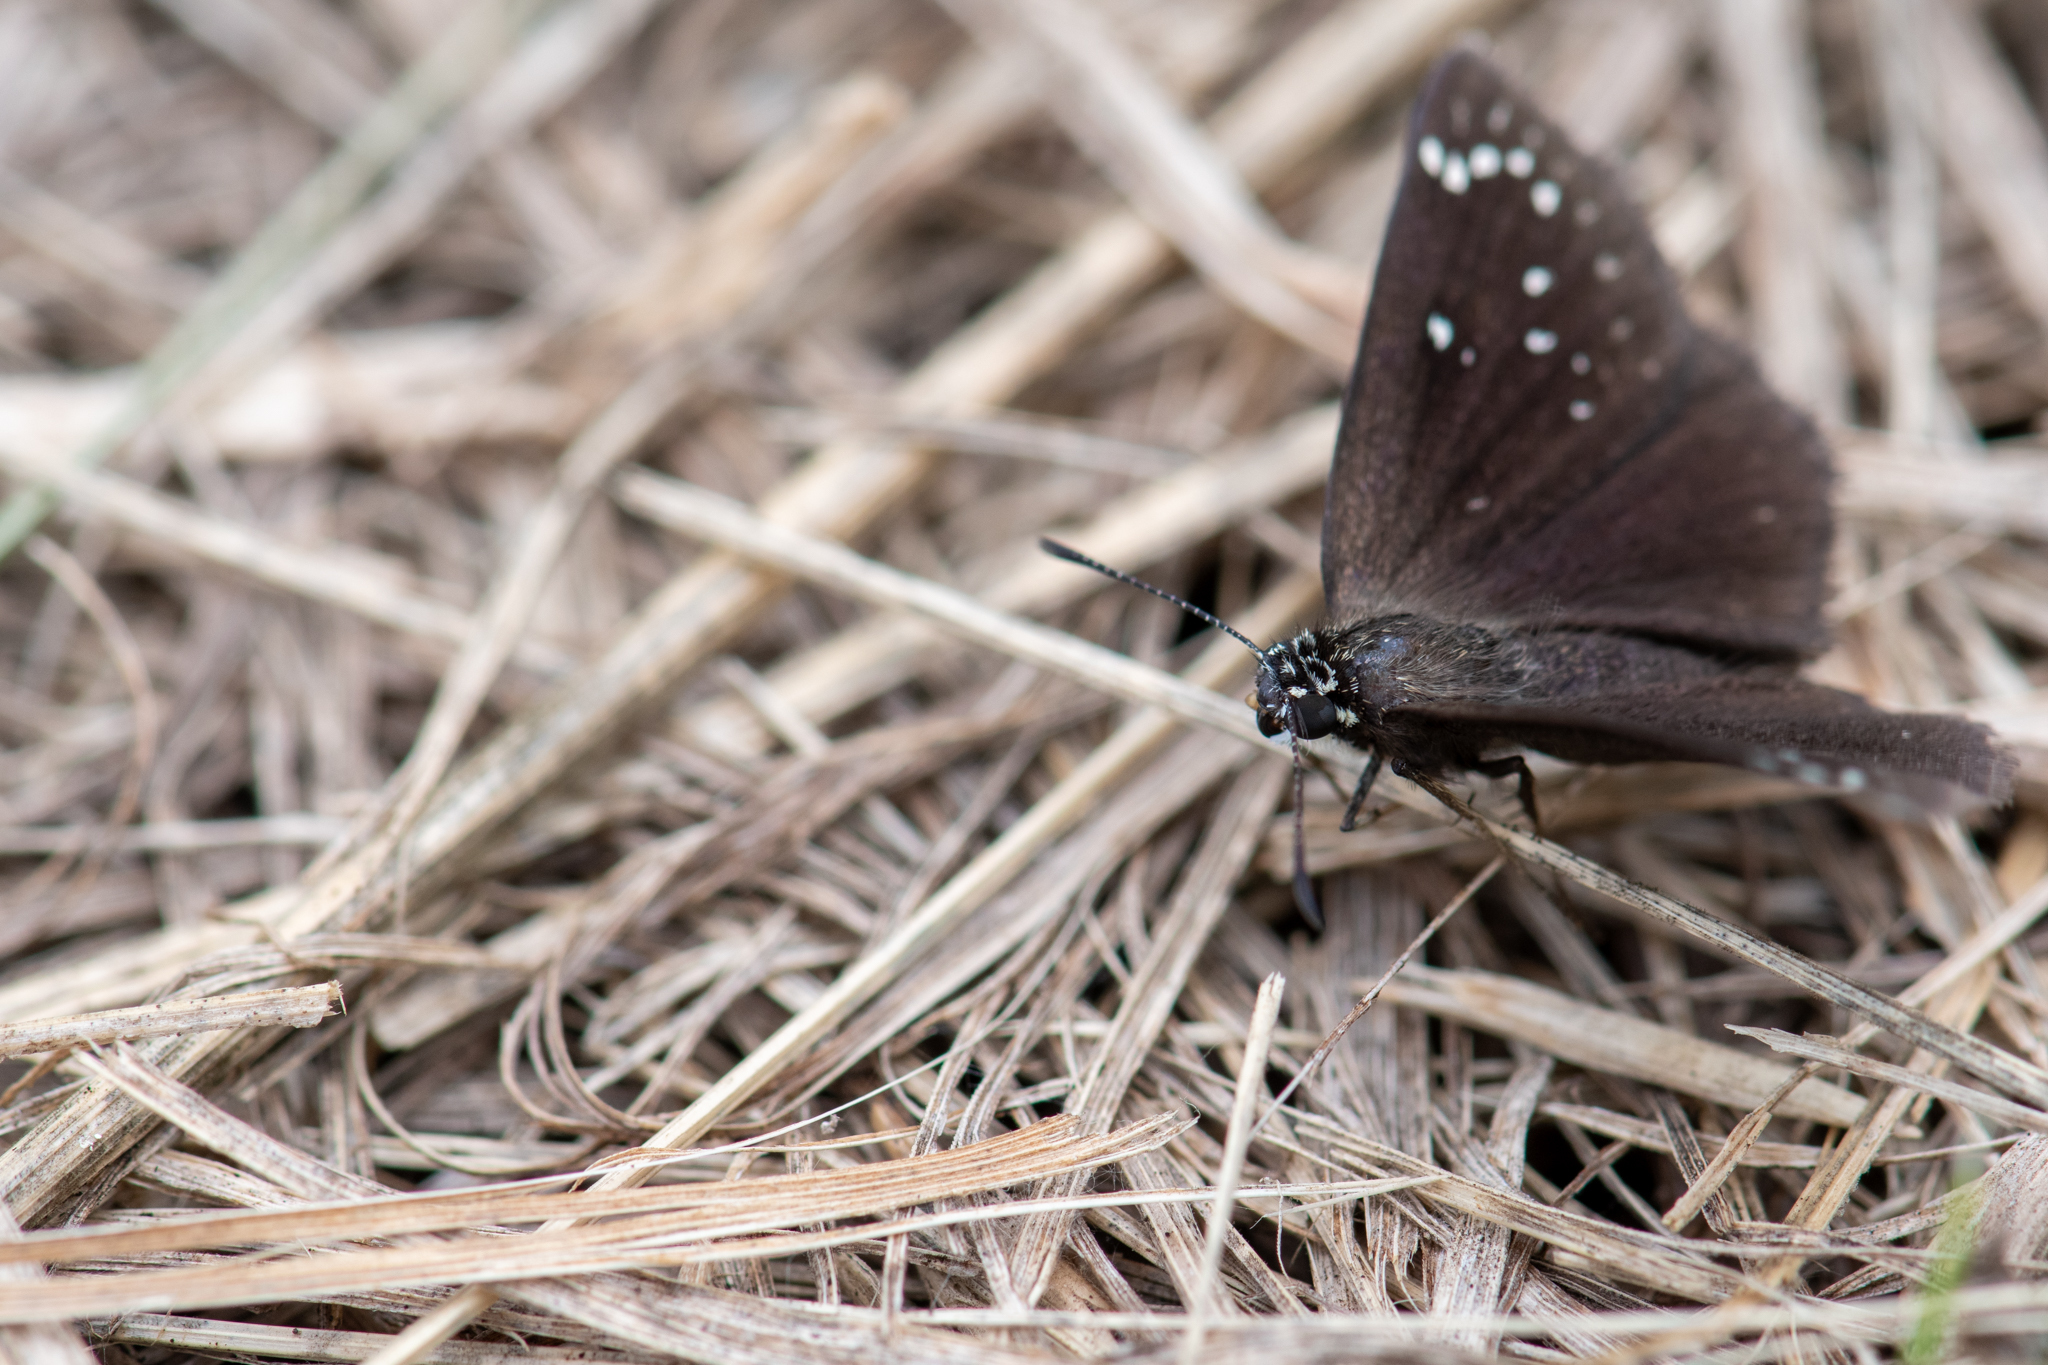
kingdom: Animalia
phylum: Arthropoda
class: Insecta
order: Lepidoptera
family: Hesperiidae
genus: Pholisora
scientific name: Pholisora catullus
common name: Common sootywing
